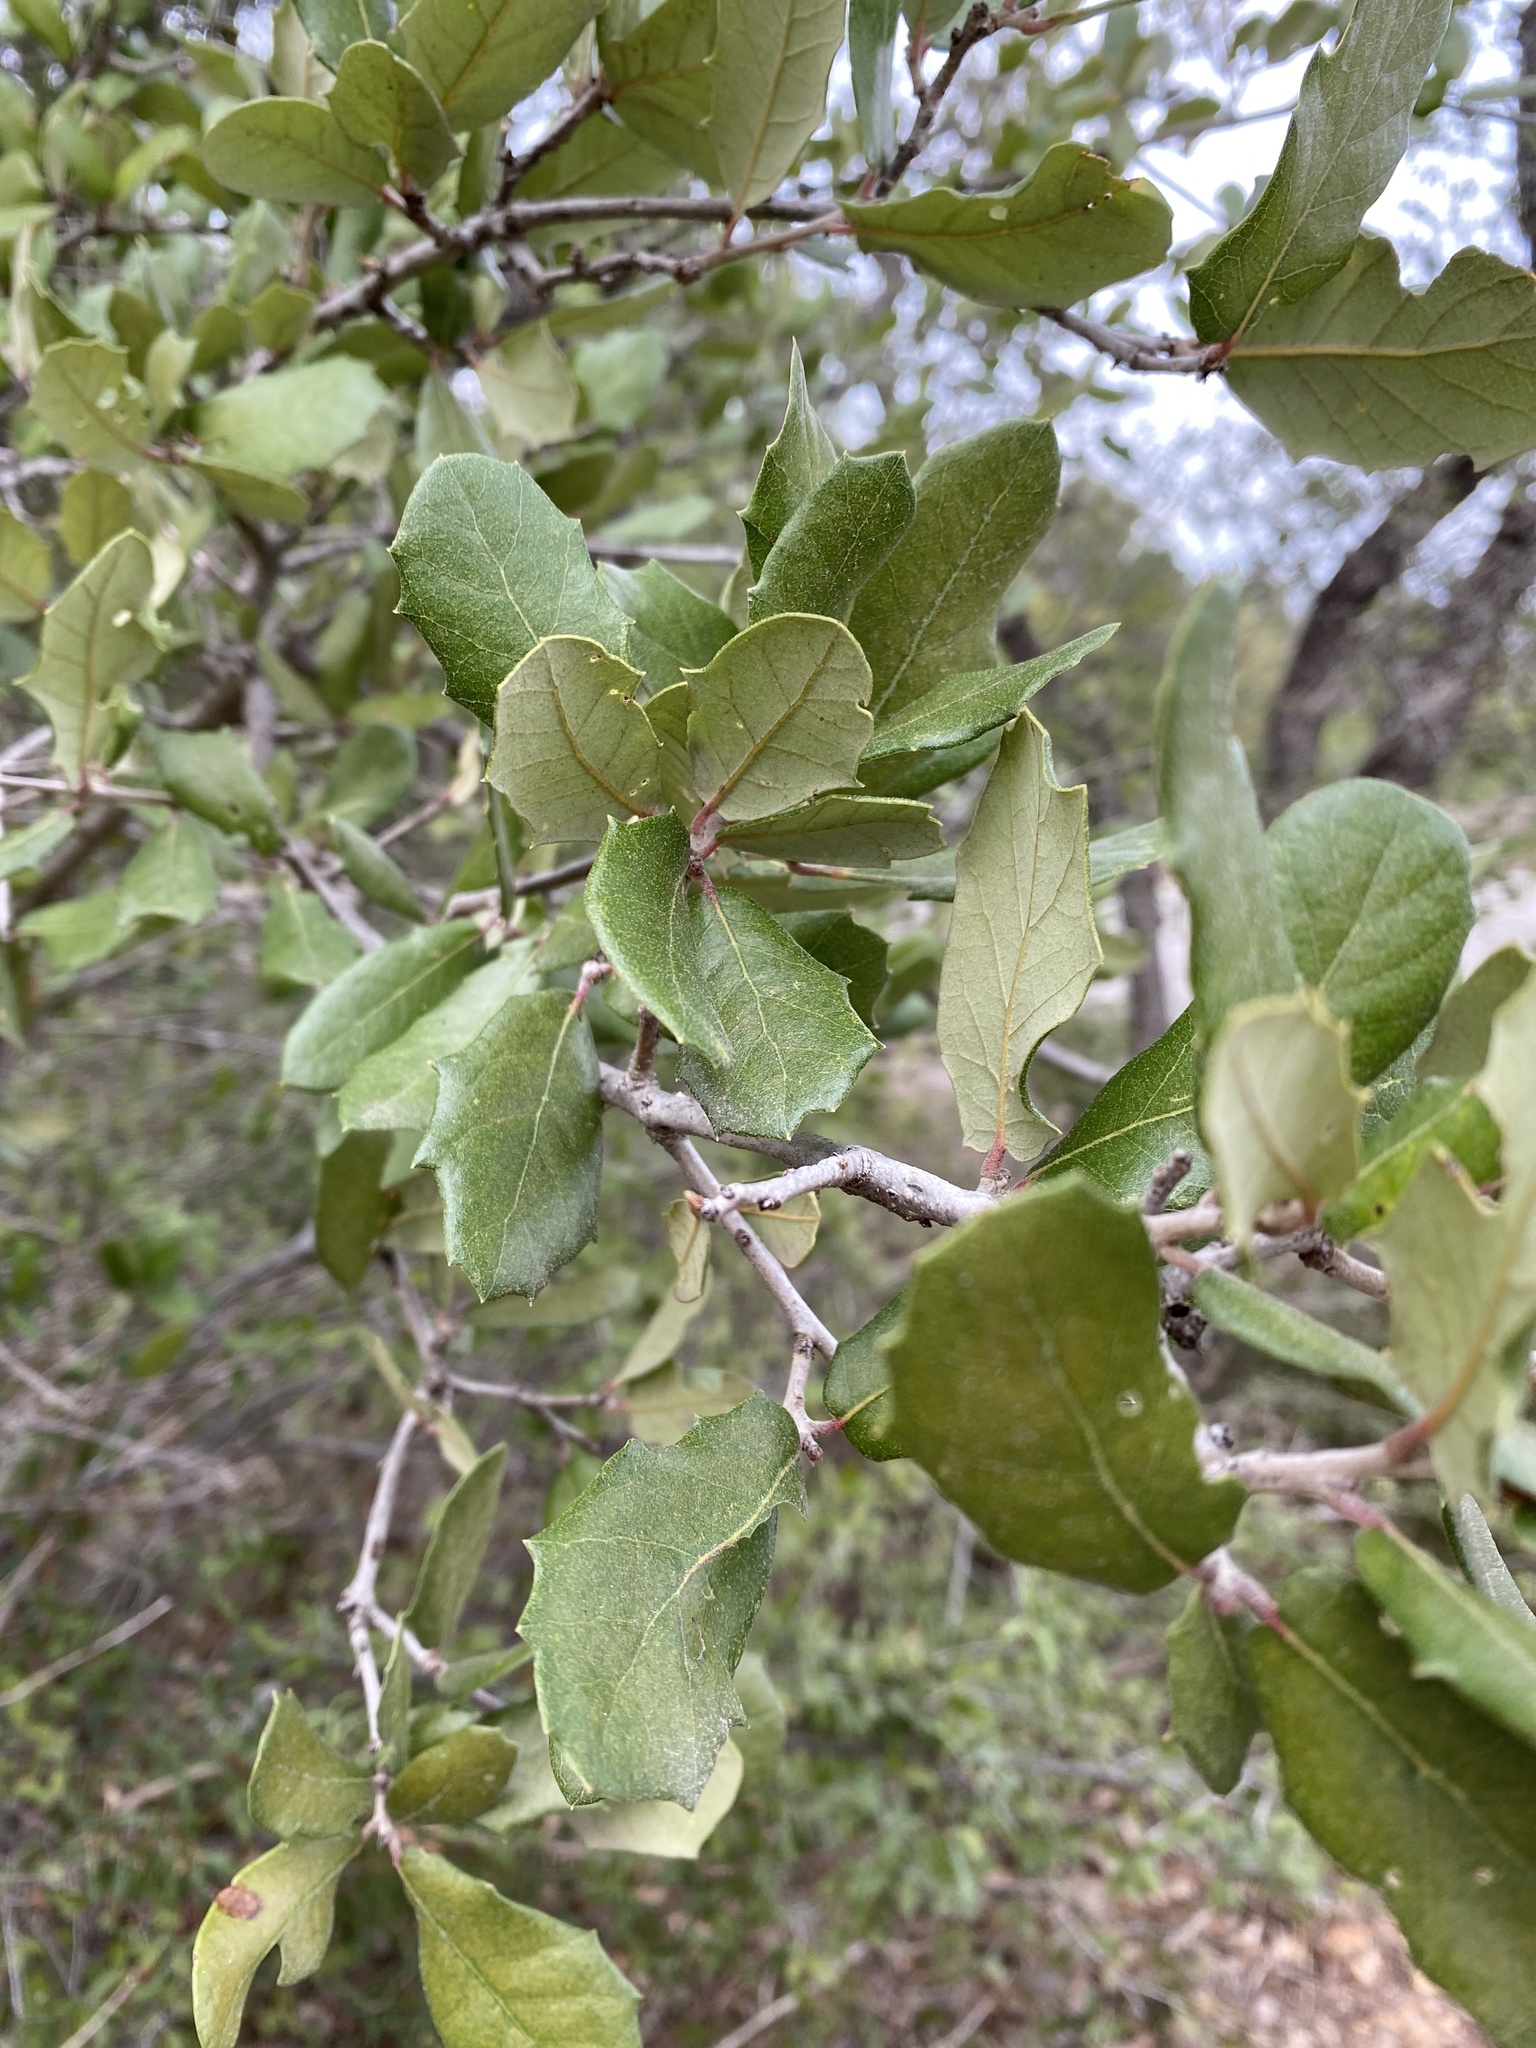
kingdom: Plantae
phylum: Tracheophyta
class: Magnoliopsida
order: Fagales
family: Fagaceae
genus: Quercus
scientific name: Quercus fusiformis
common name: Texas live oak
